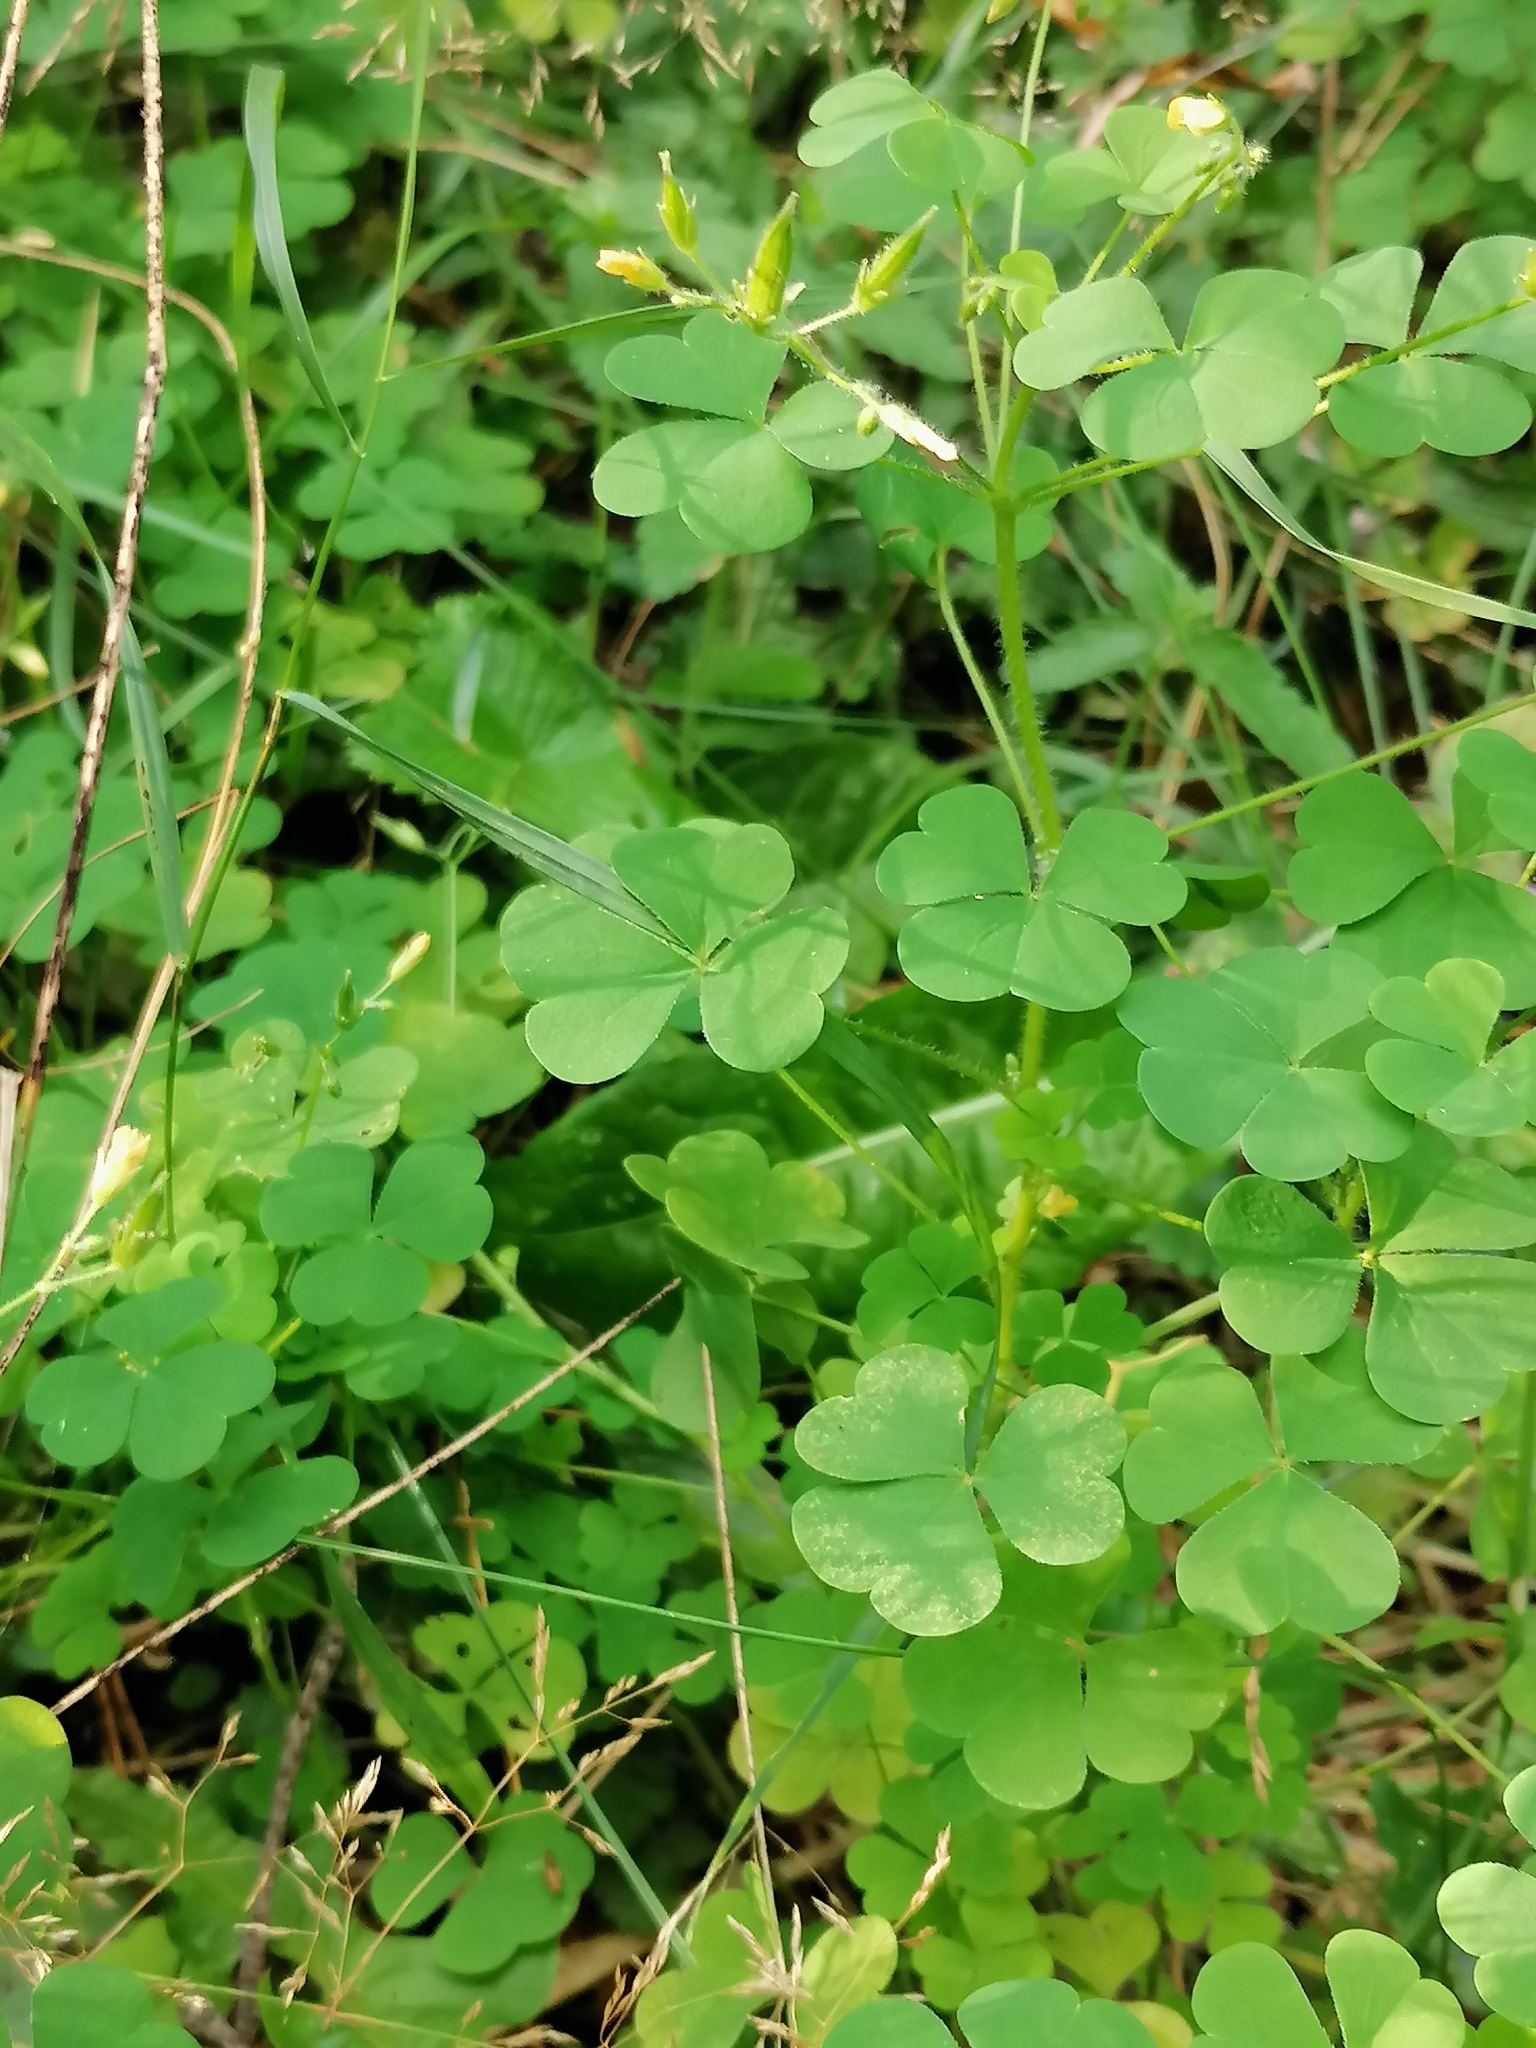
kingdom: Plantae
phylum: Tracheophyta
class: Magnoliopsida
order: Oxalidales
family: Oxalidaceae
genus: Oxalis
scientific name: Oxalis stricta
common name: Upright yellow-sorrel
